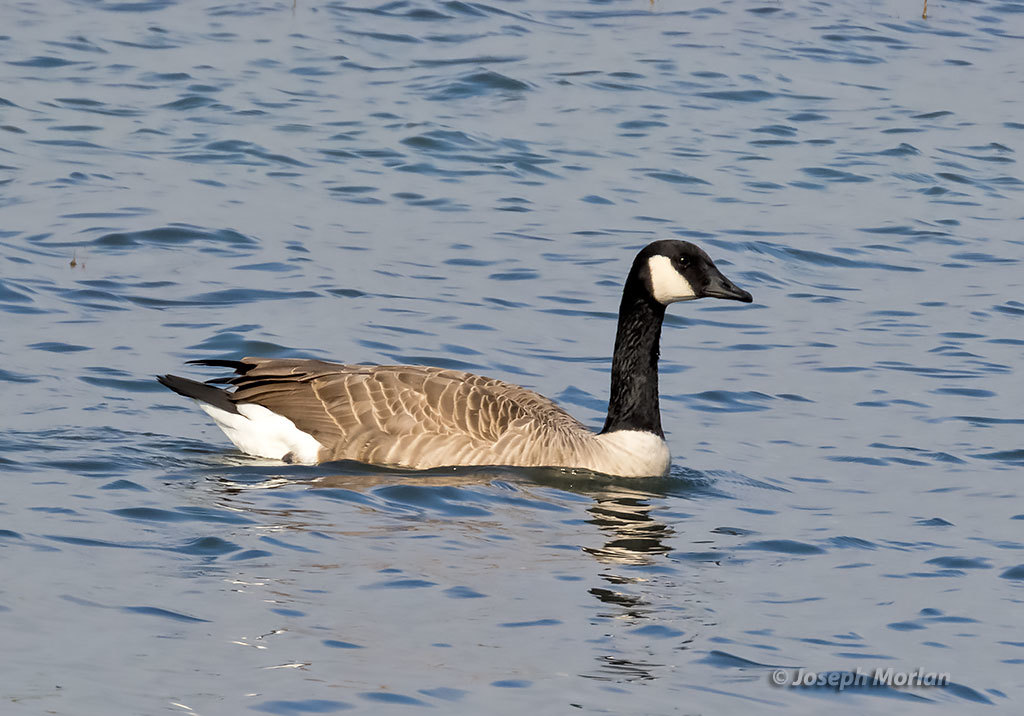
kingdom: Animalia
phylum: Chordata
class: Aves
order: Anseriformes
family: Anatidae
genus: Branta
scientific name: Branta canadensis
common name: Canada goose
